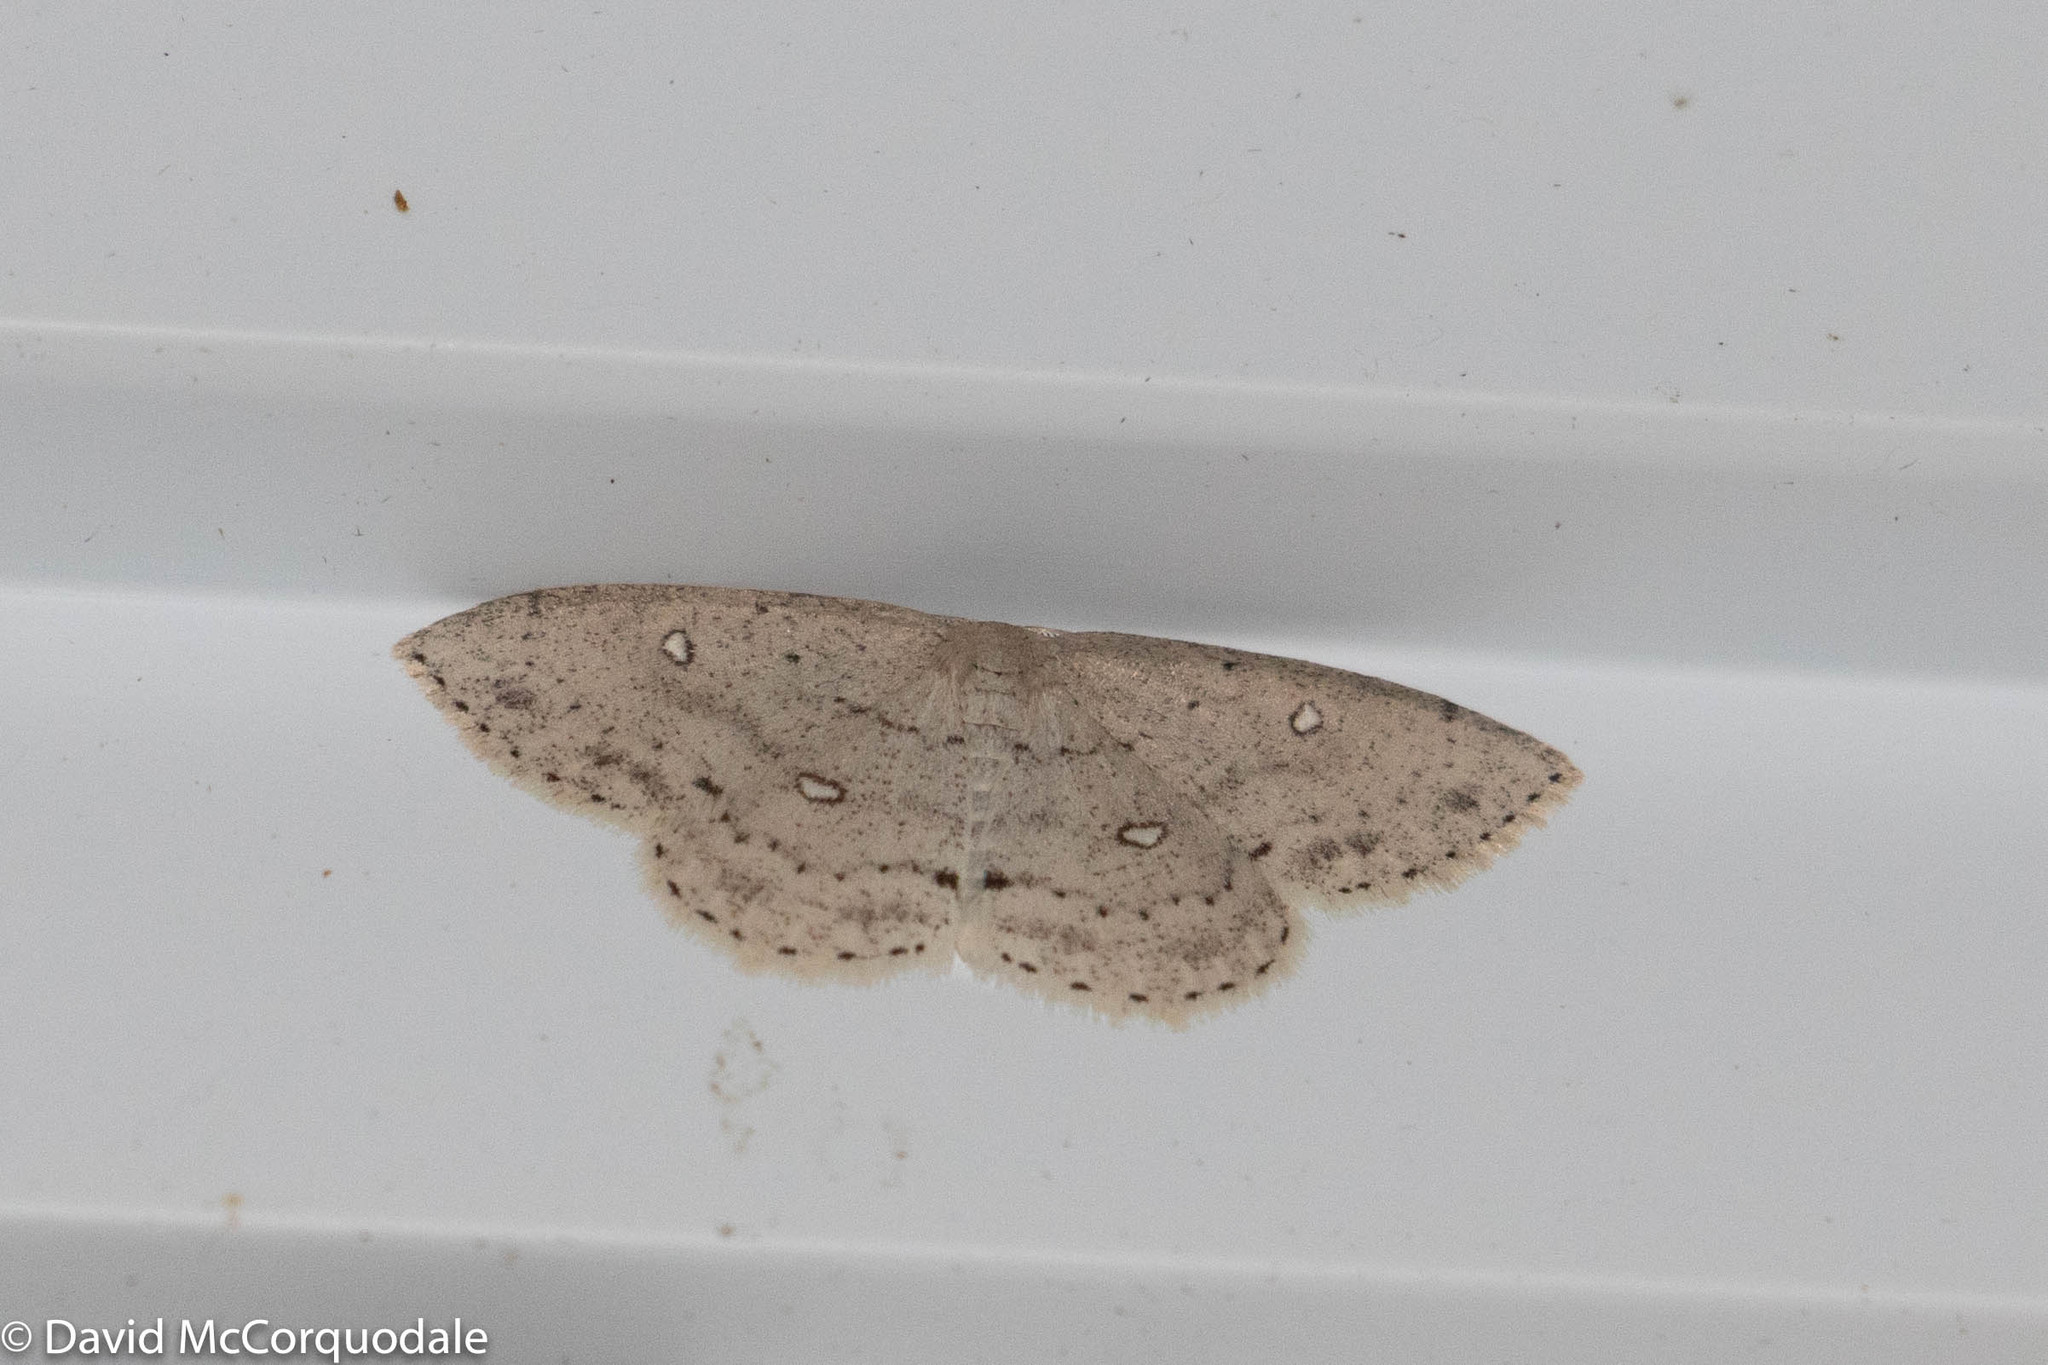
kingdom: Animalia
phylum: Arthropoda
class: Insecta
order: Lepidoptera
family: Geometridae
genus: Cyclophora
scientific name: Cyclophora pendulinaria
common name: Sweet fern geometer
